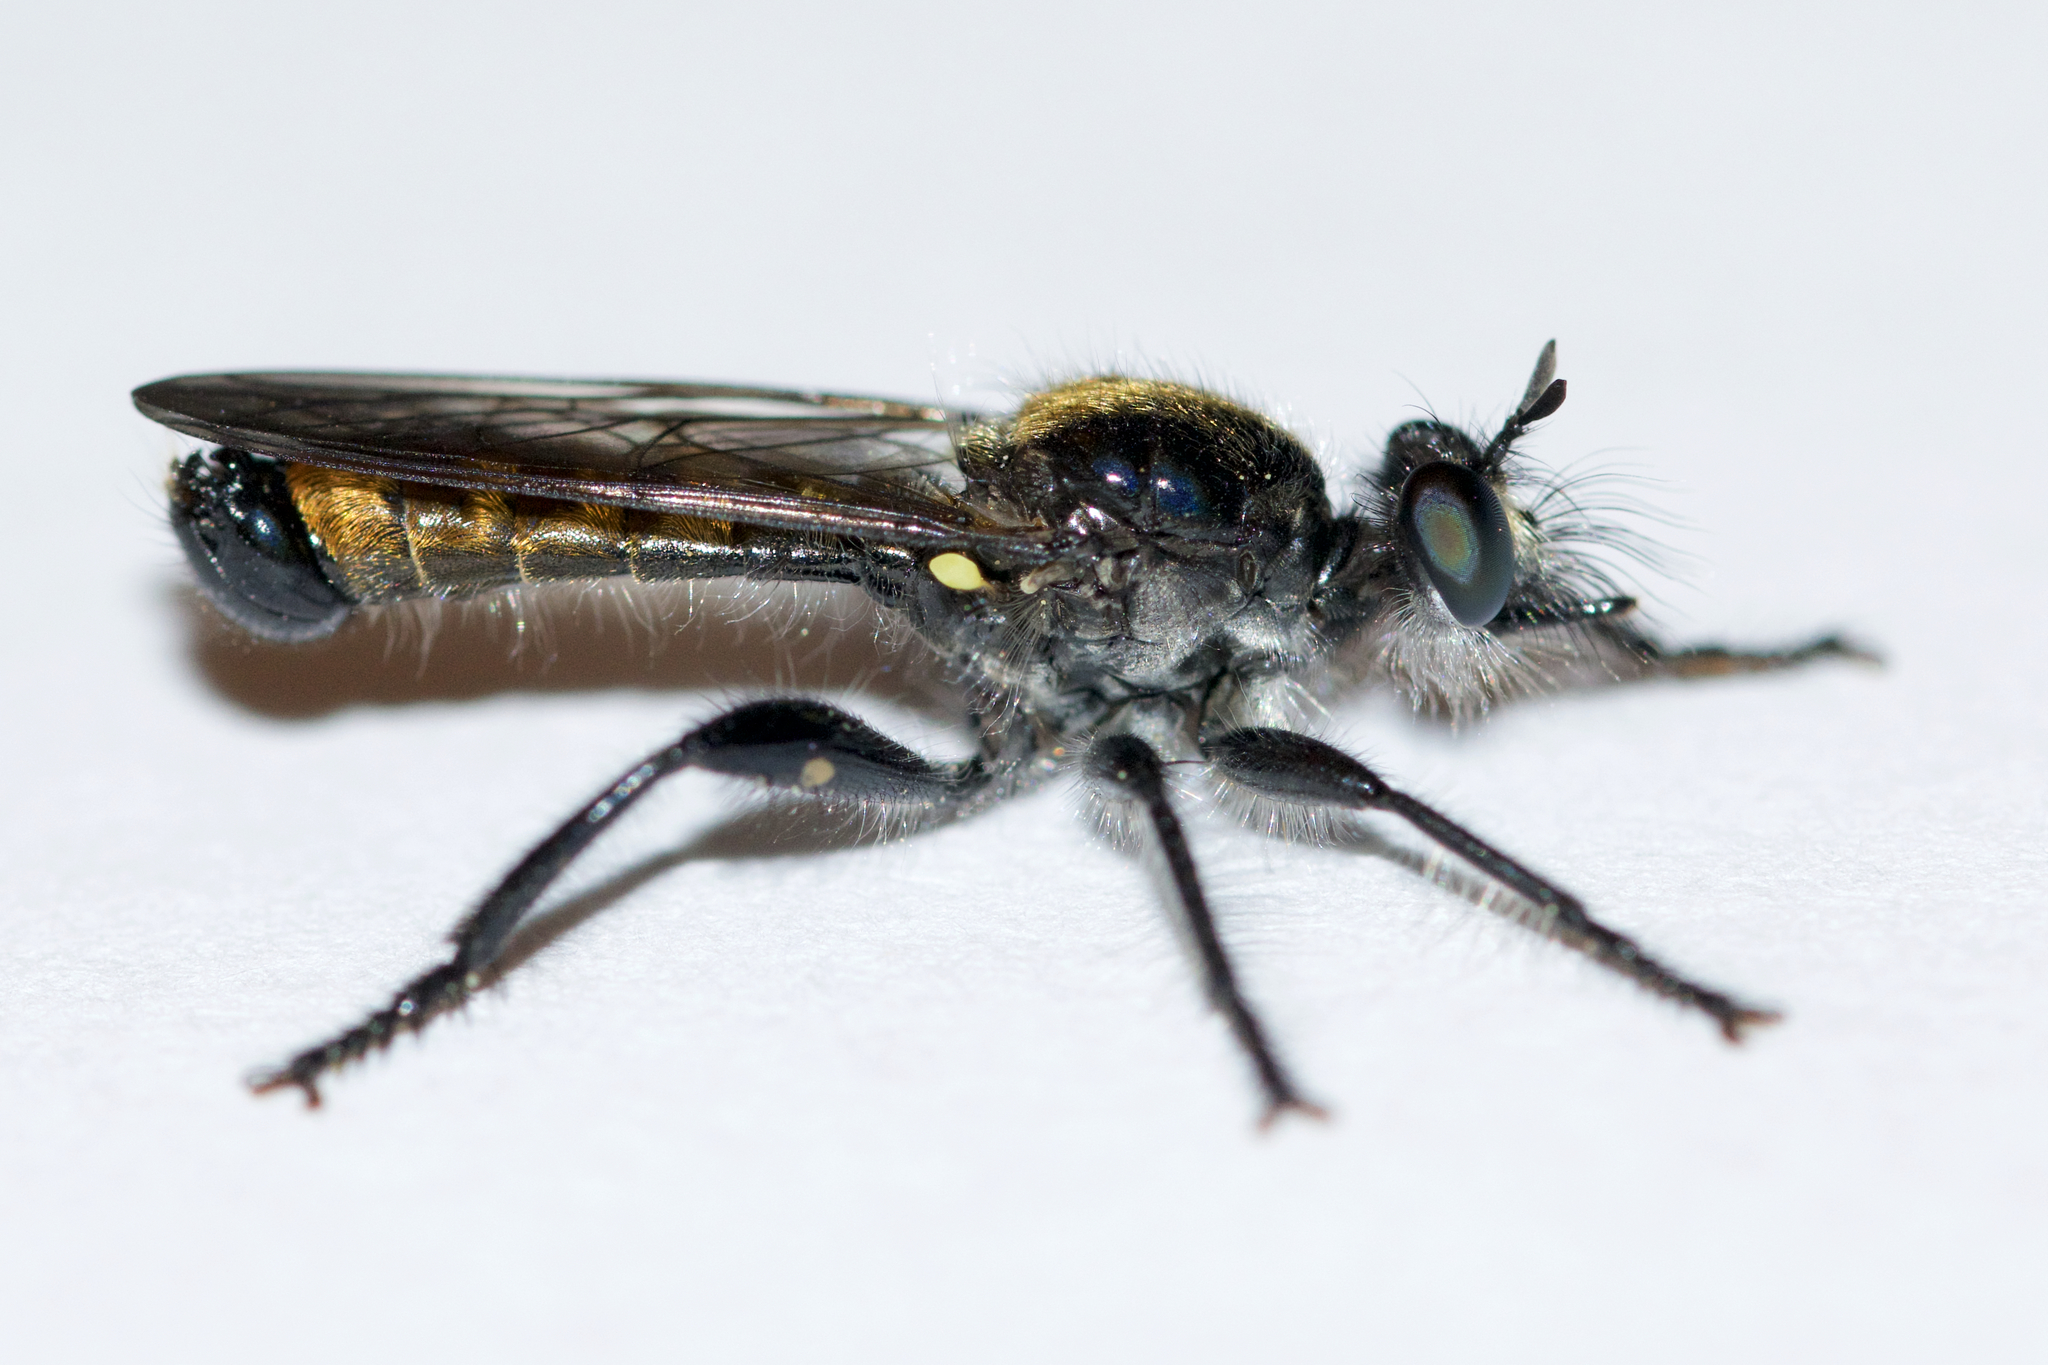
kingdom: Animalia
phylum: Arthropoda
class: Insecta
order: Diptera
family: Asilidae
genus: Laphria
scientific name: Laphria index
